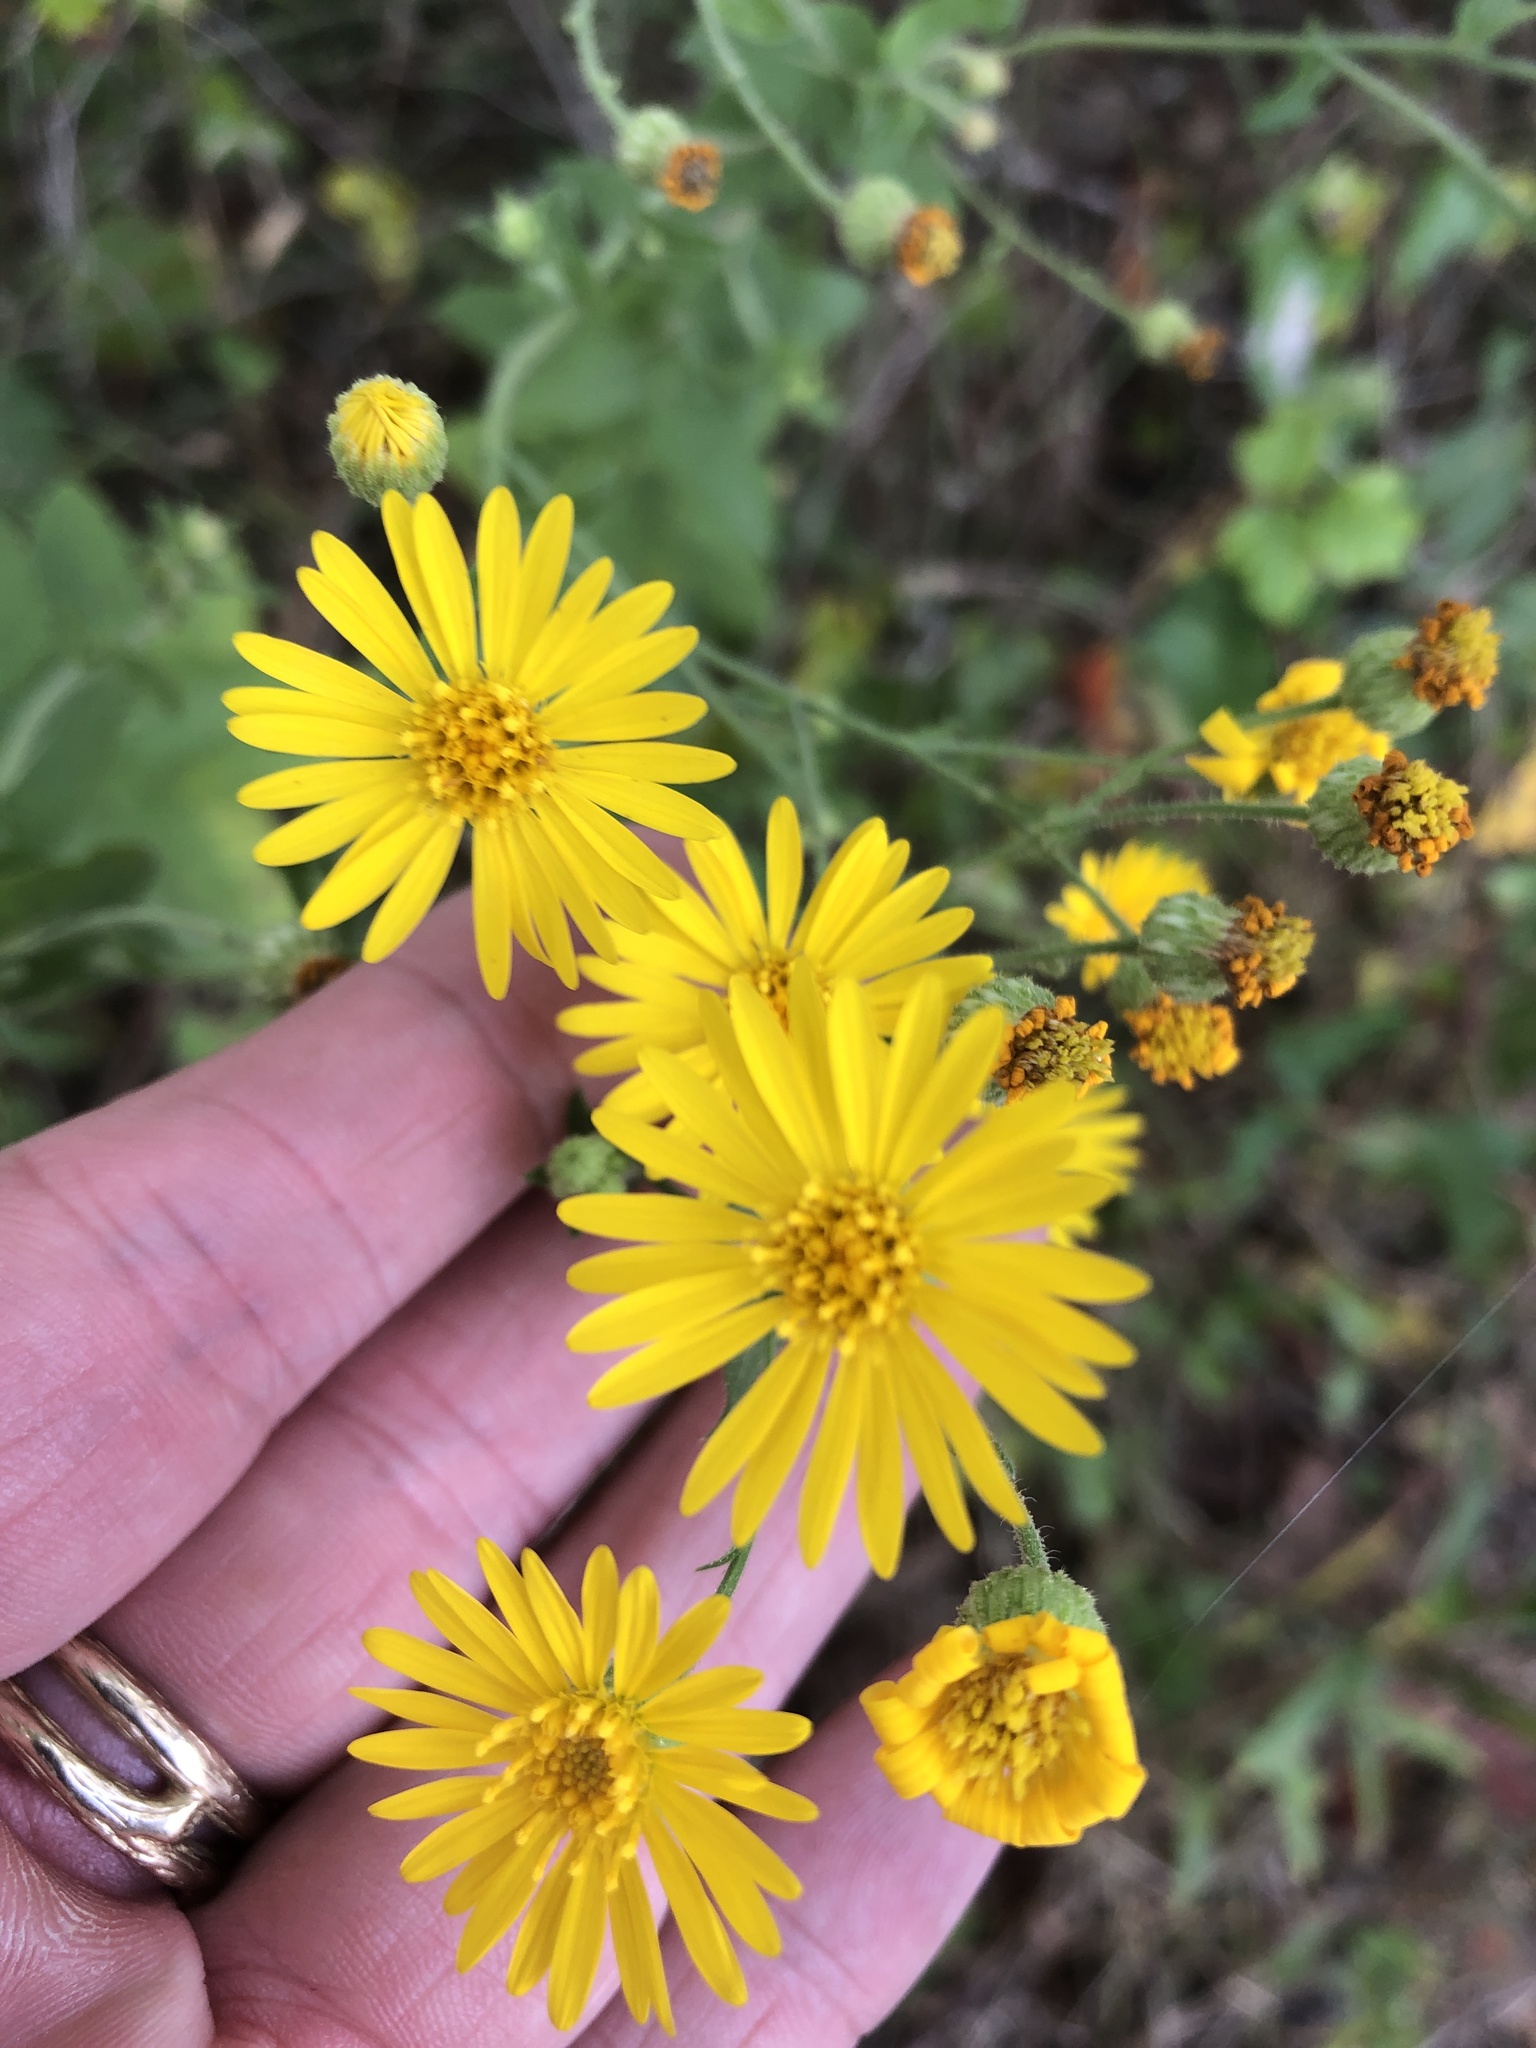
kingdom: Plantae
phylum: Tracheophyta
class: Magnoliopsida
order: Asterales
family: Asteraceae
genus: Heterotheca
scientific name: Heterotheca subaxillaris
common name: Camphorweed
